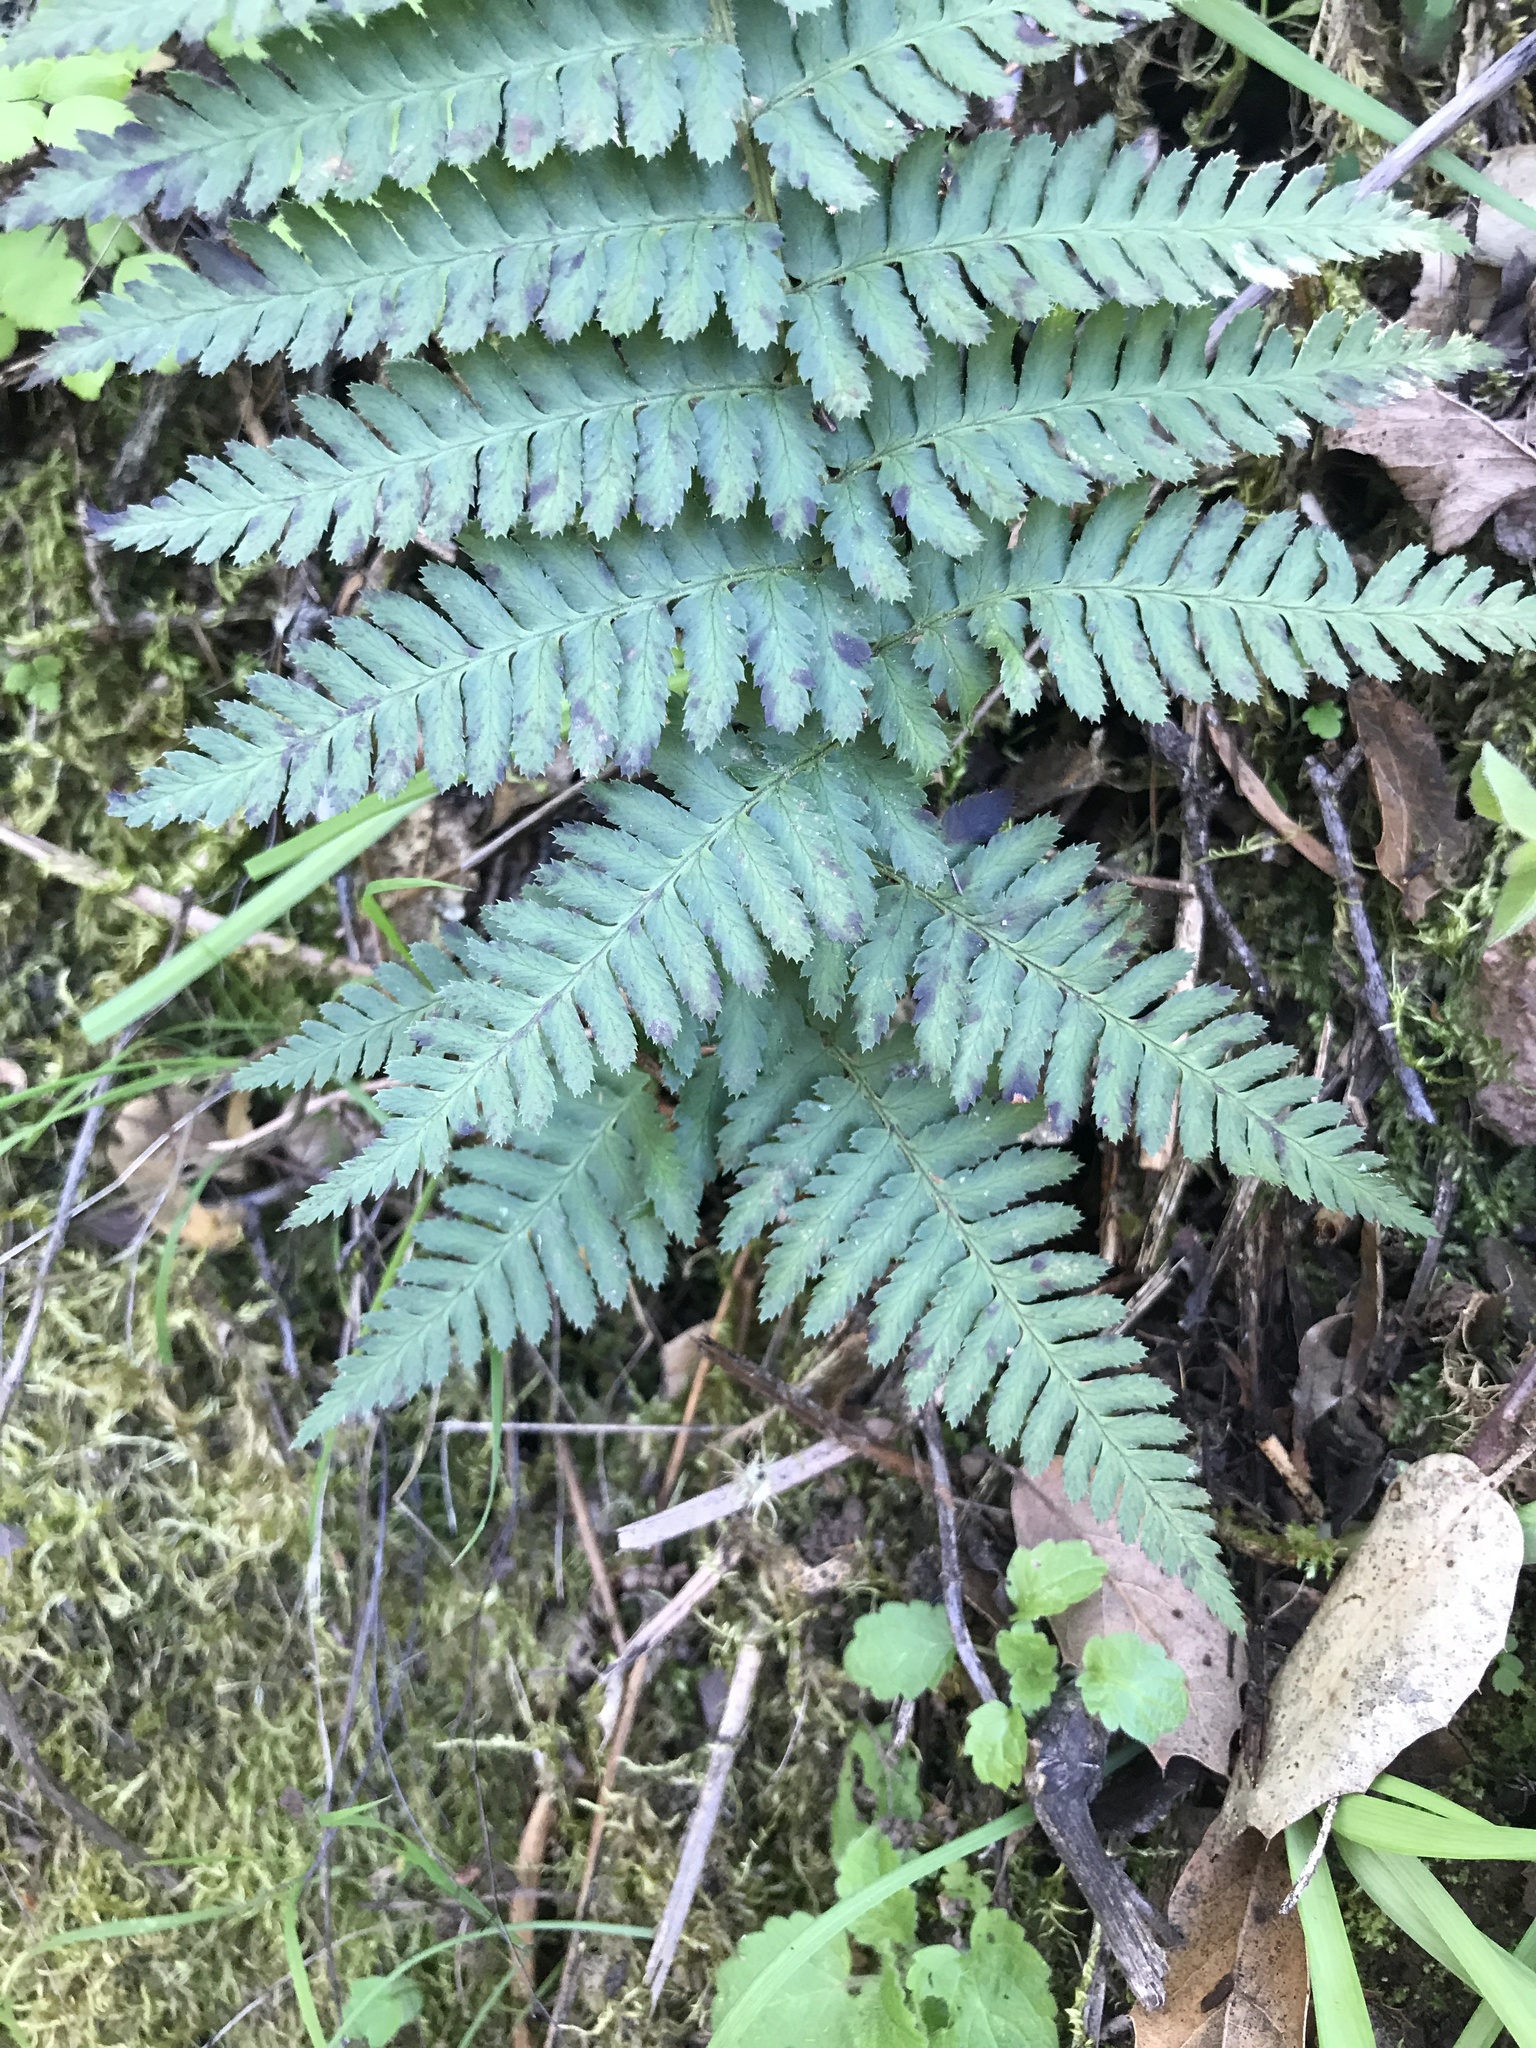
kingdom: Plantae
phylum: Tracheophyta
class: Polypodiopsida
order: Polypodiales
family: Dryopteridaceae
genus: Dryopteris
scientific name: Dryopteris arguta
